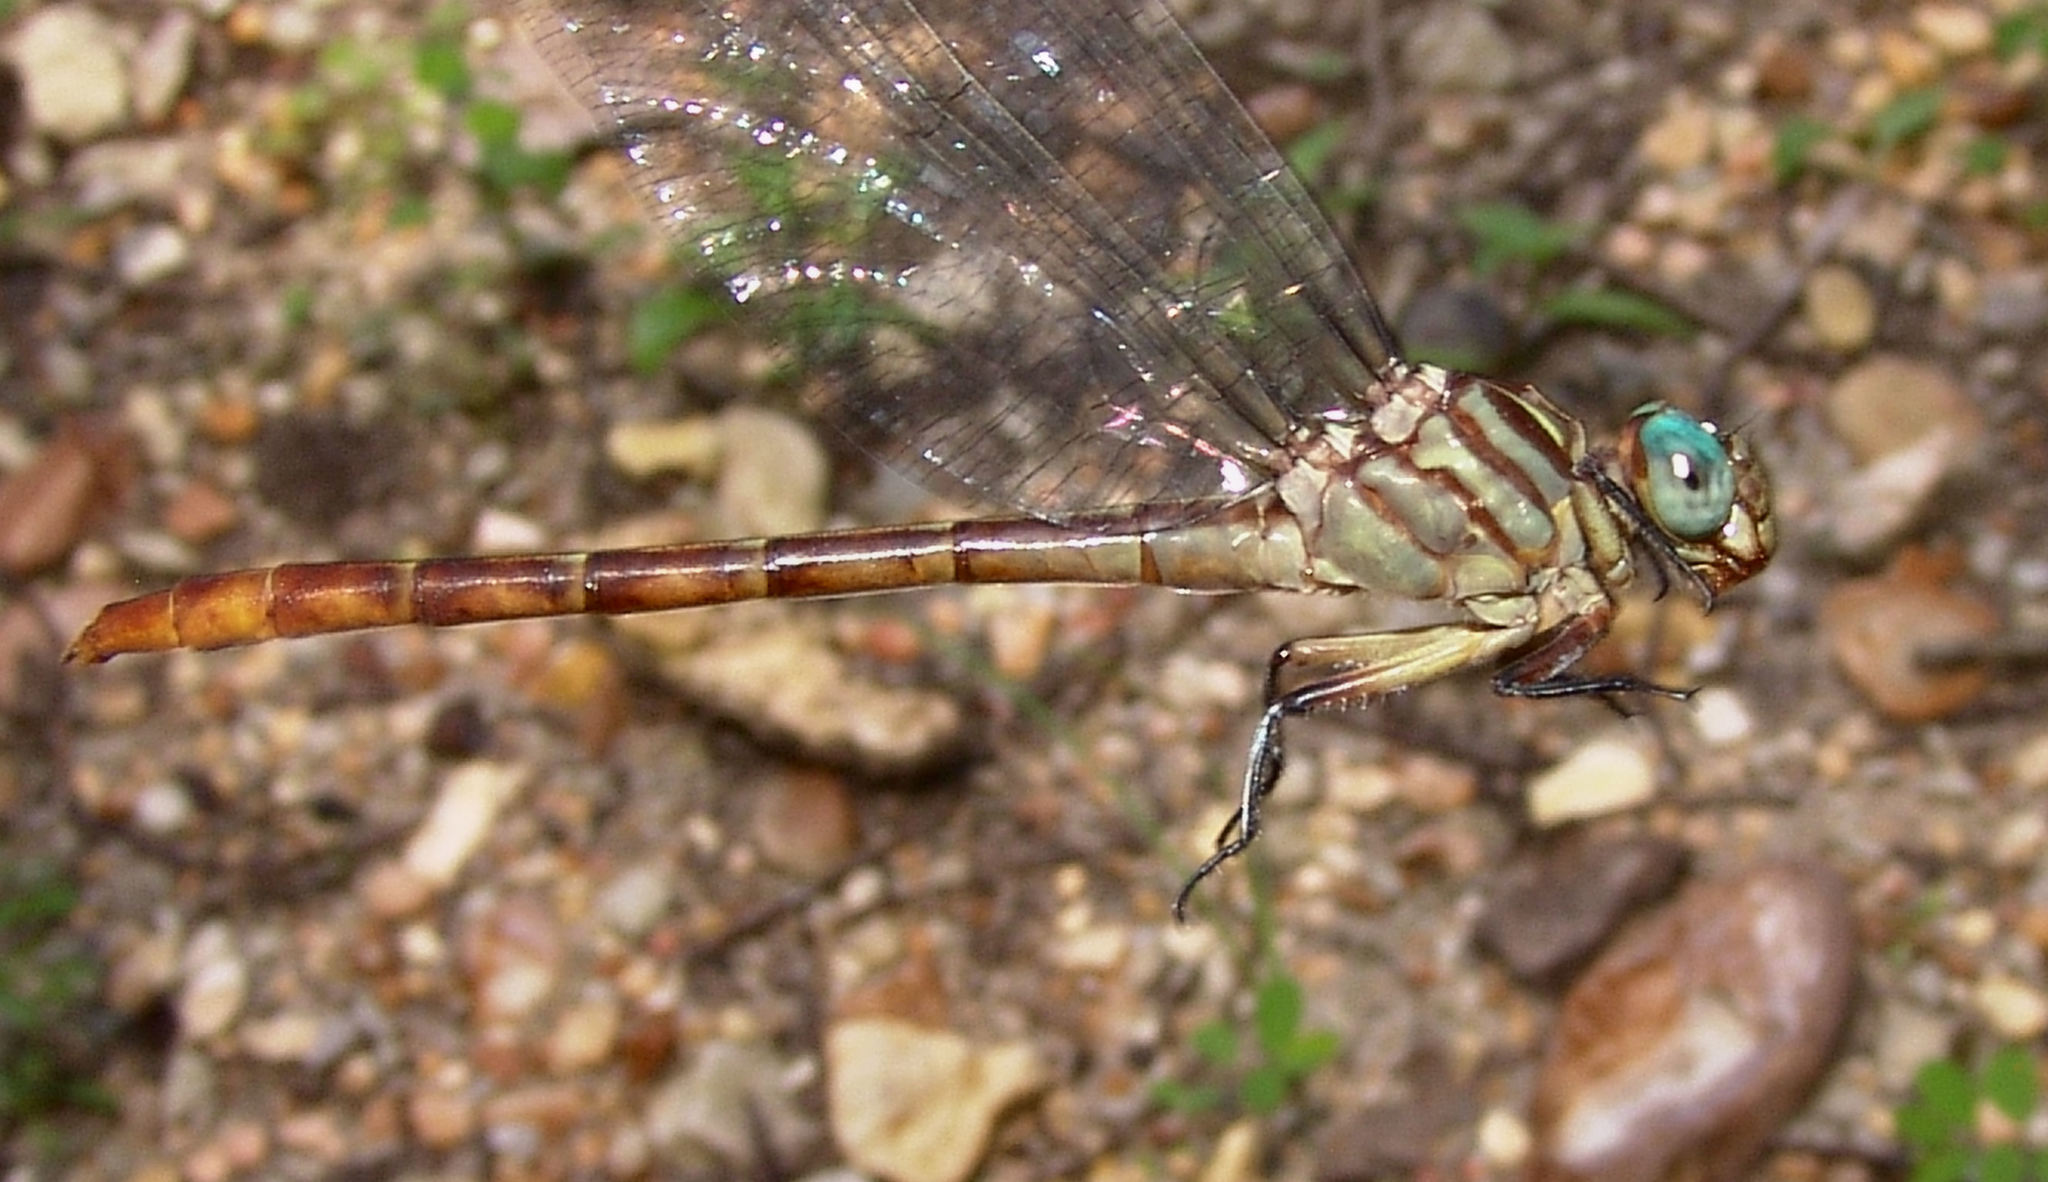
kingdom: Animalia
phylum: Arthropoda
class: Insecta
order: Odonata
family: Gomphidae
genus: Stylurus
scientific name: Stylurus plagiatus
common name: Russet-tipped clubtail
